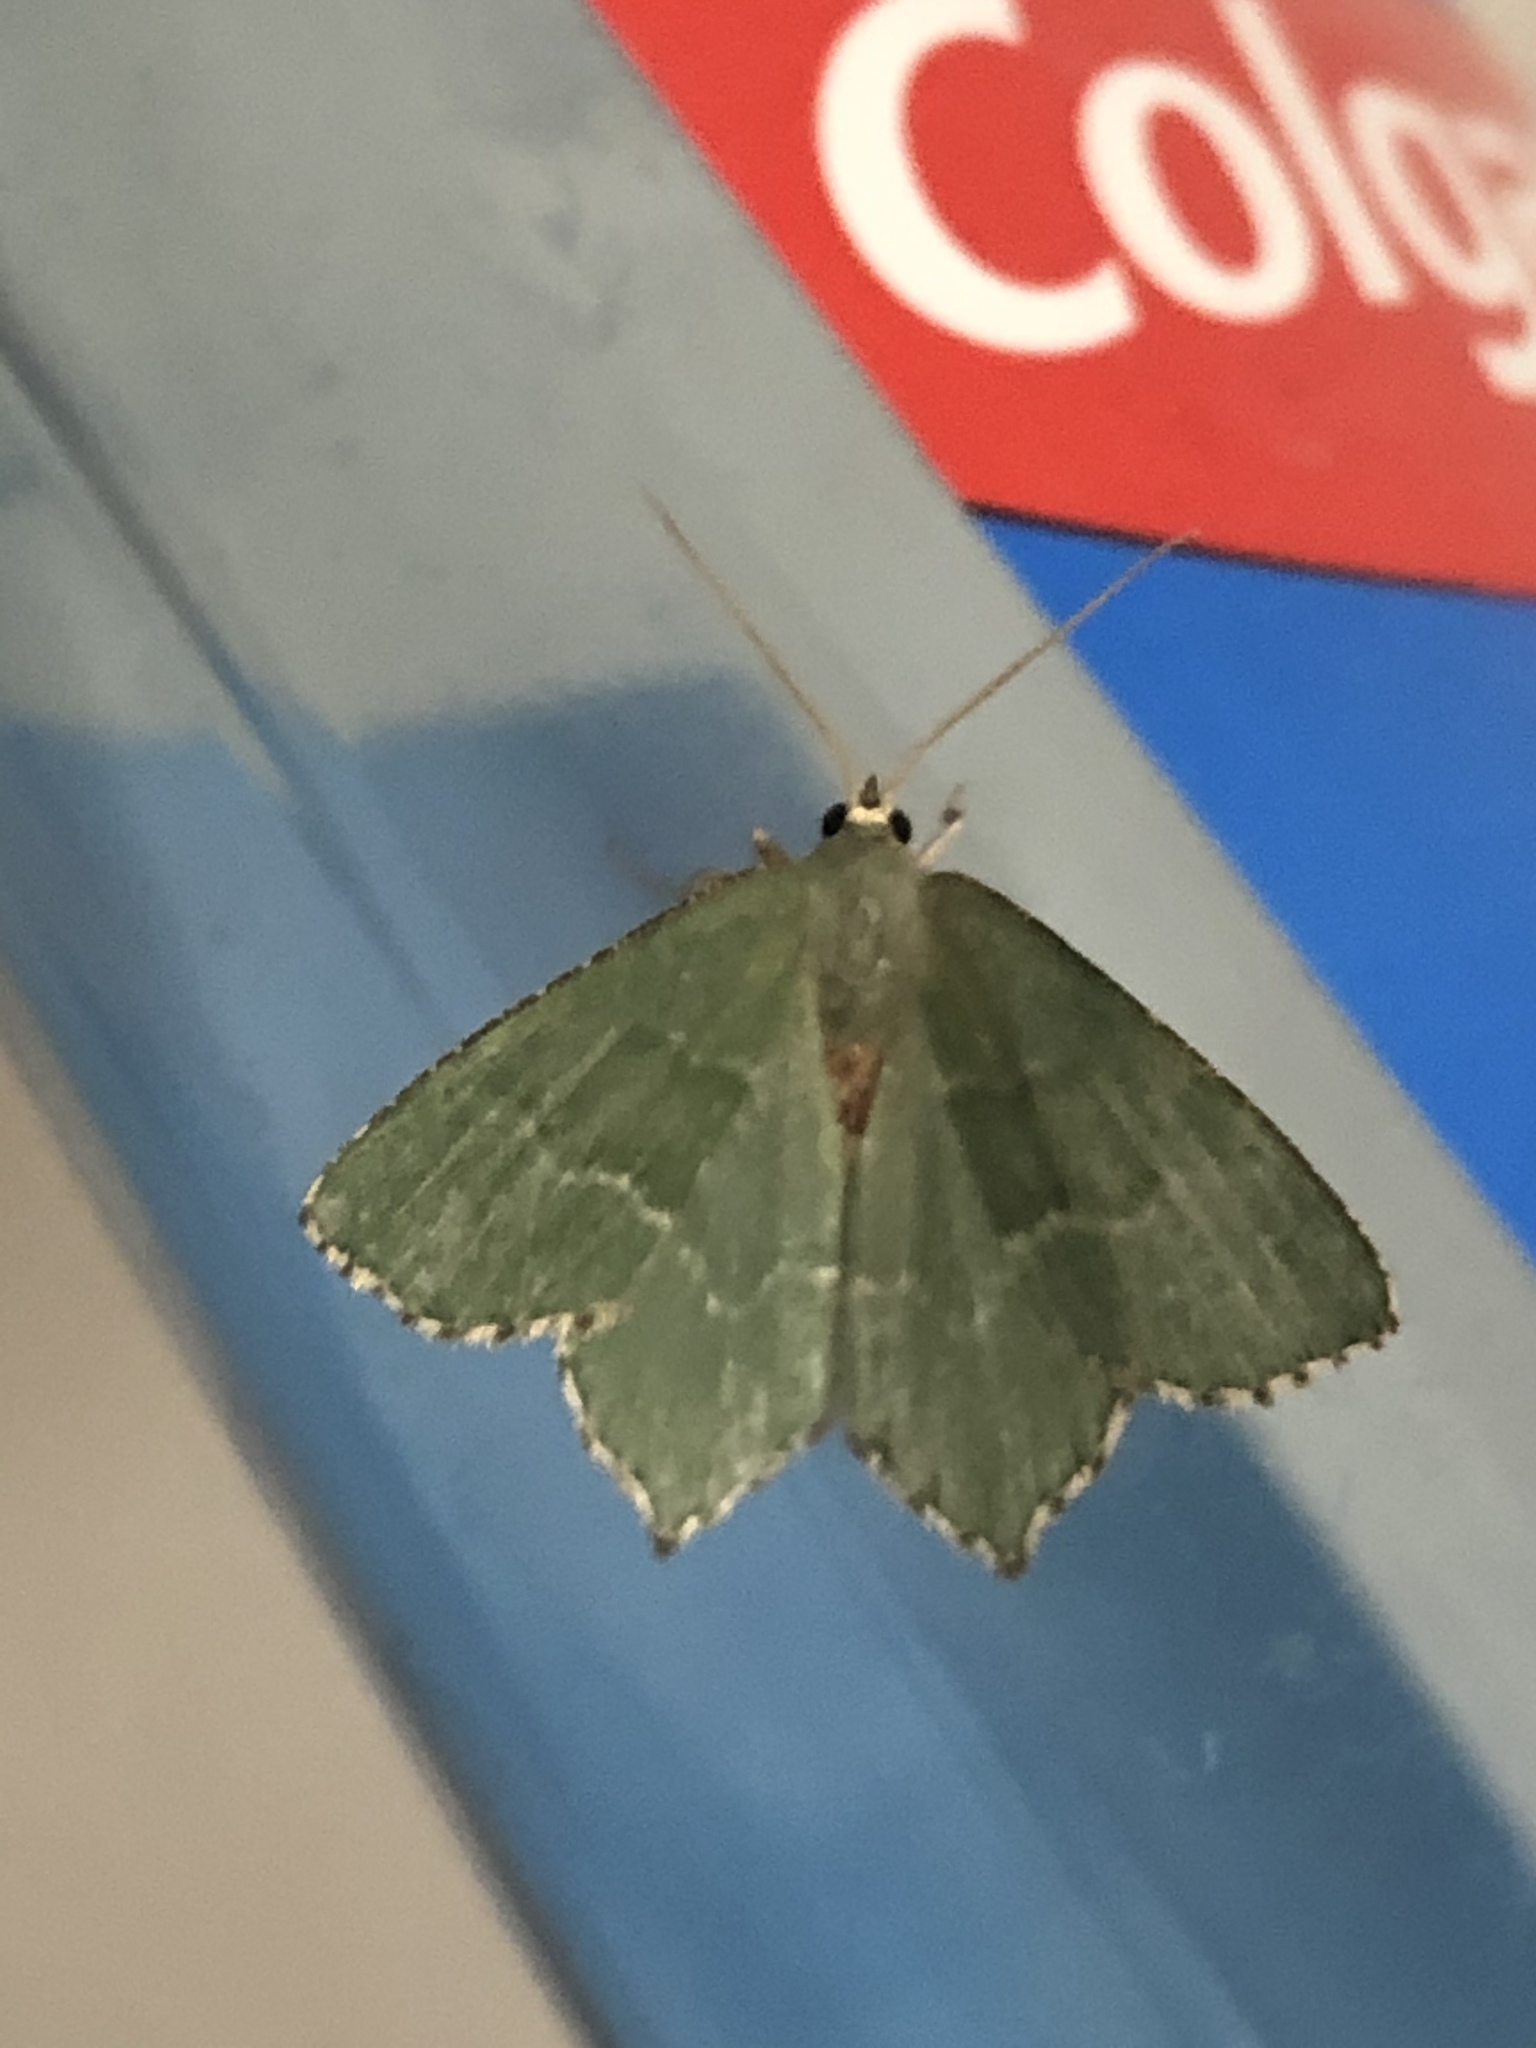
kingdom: Animalia
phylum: Arthropoda
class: Insecta
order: Lepidoptera
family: Geometridae
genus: Hemithea
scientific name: Hemithea aestivaria
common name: Common emerald
